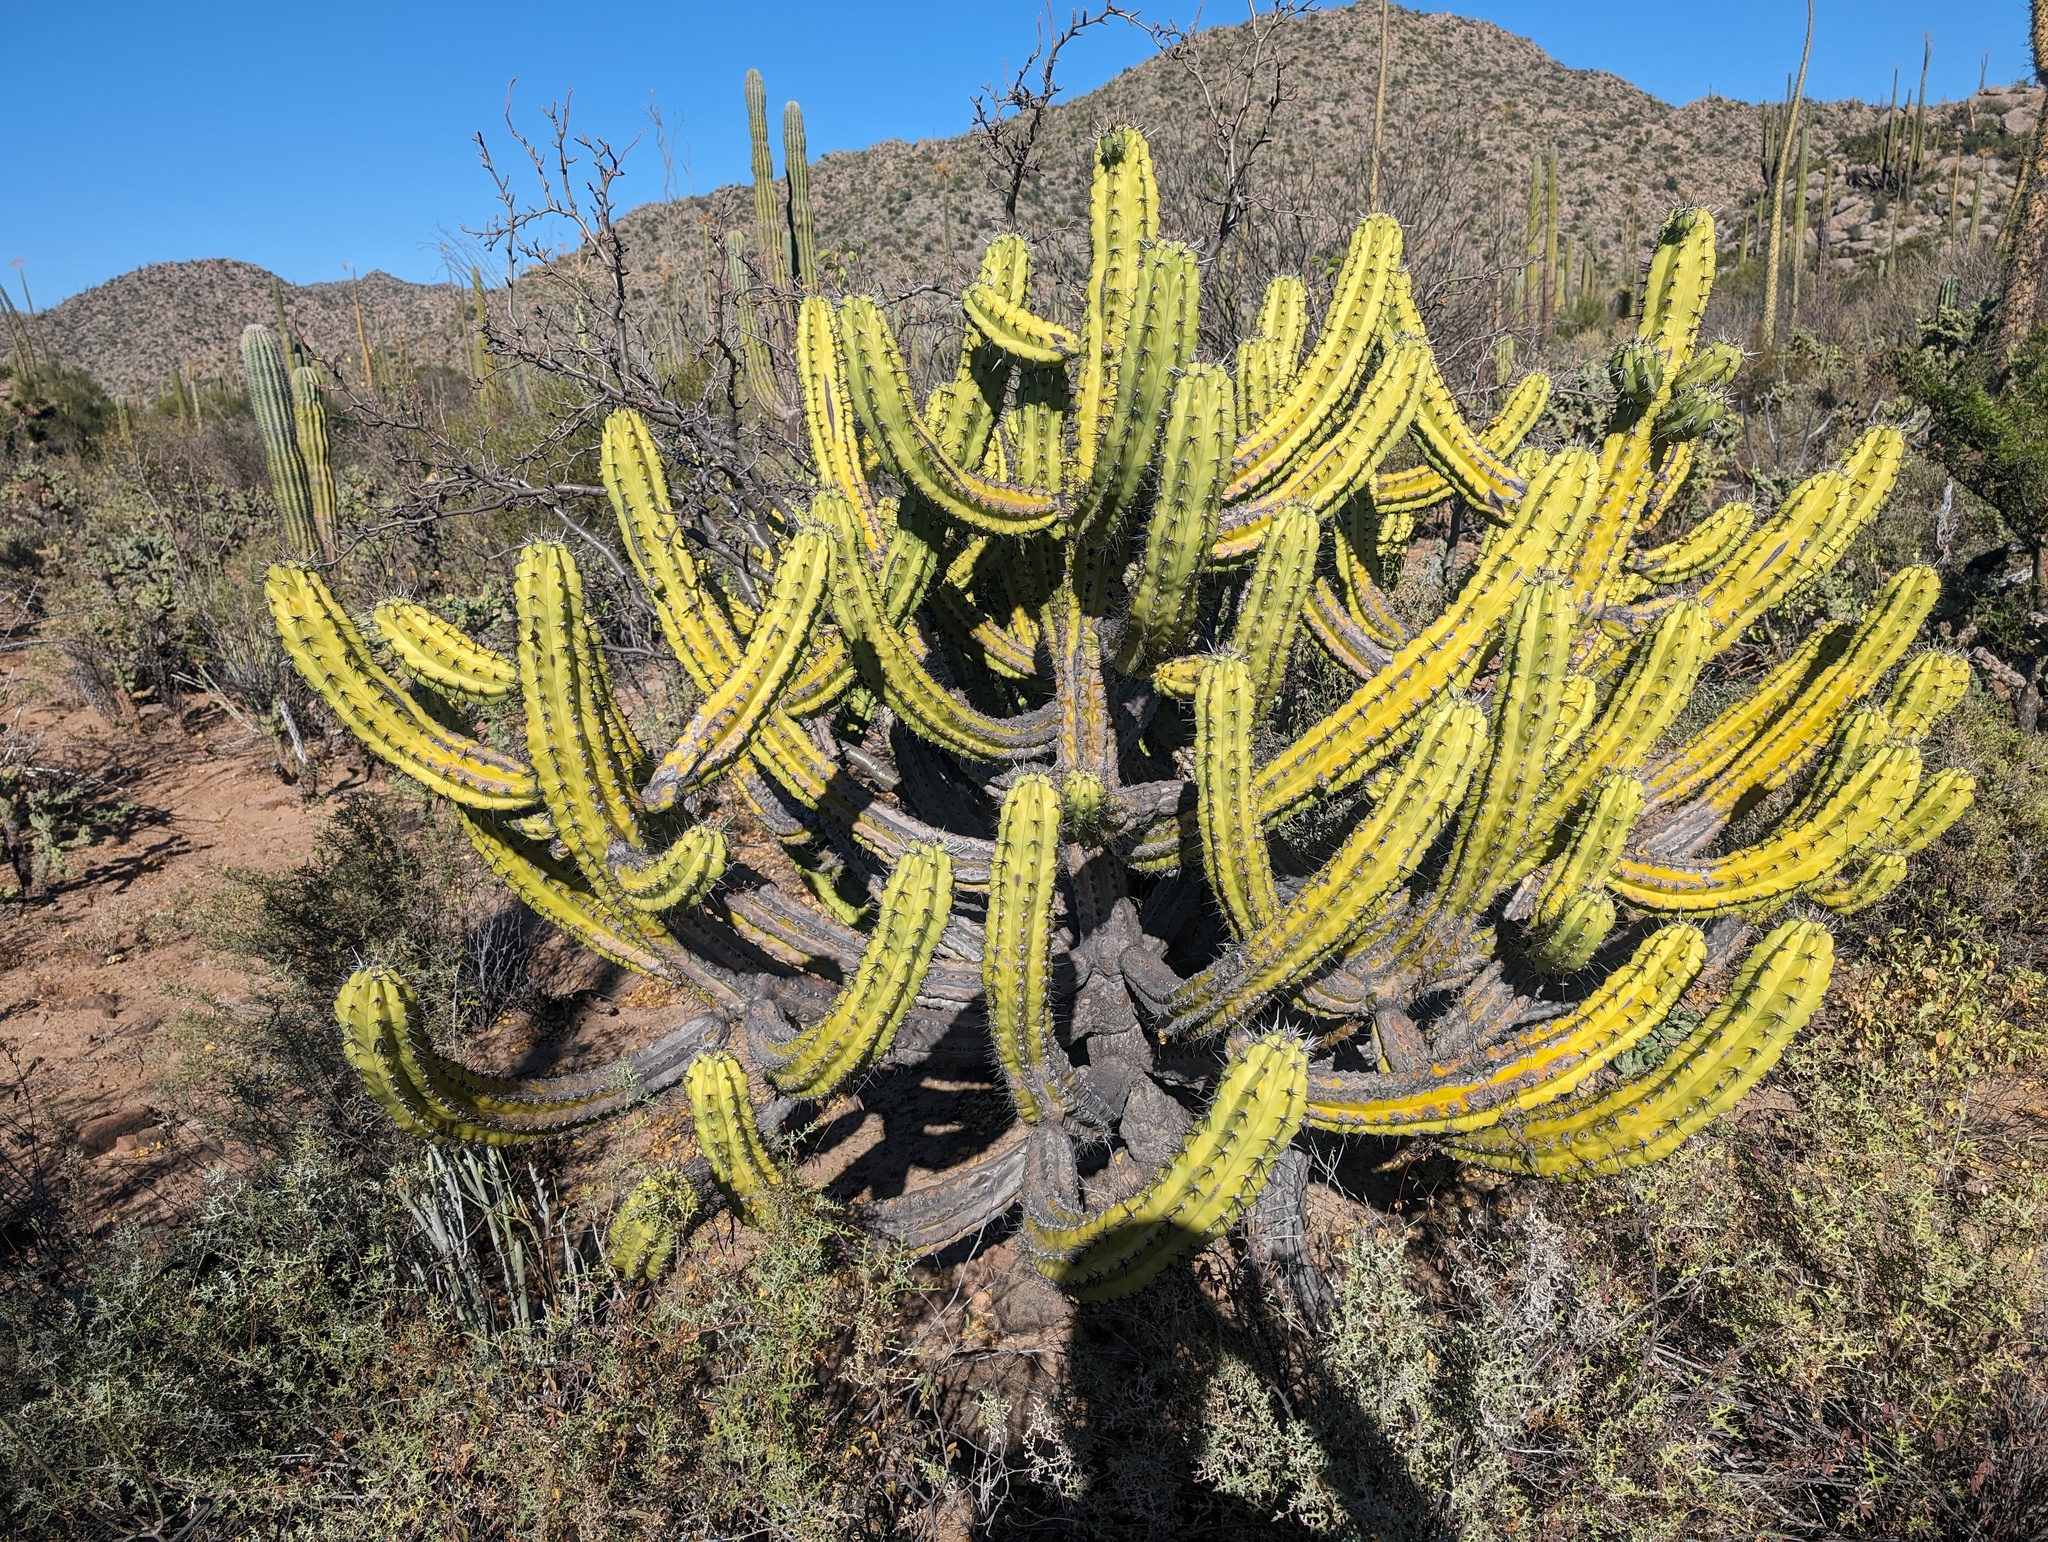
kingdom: Plantae
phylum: Tracheophyta
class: Magnoliopsida
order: Caryophyllales
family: Cactaceae
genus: Myrtillocactus
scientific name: Myrtillocactus cochal
